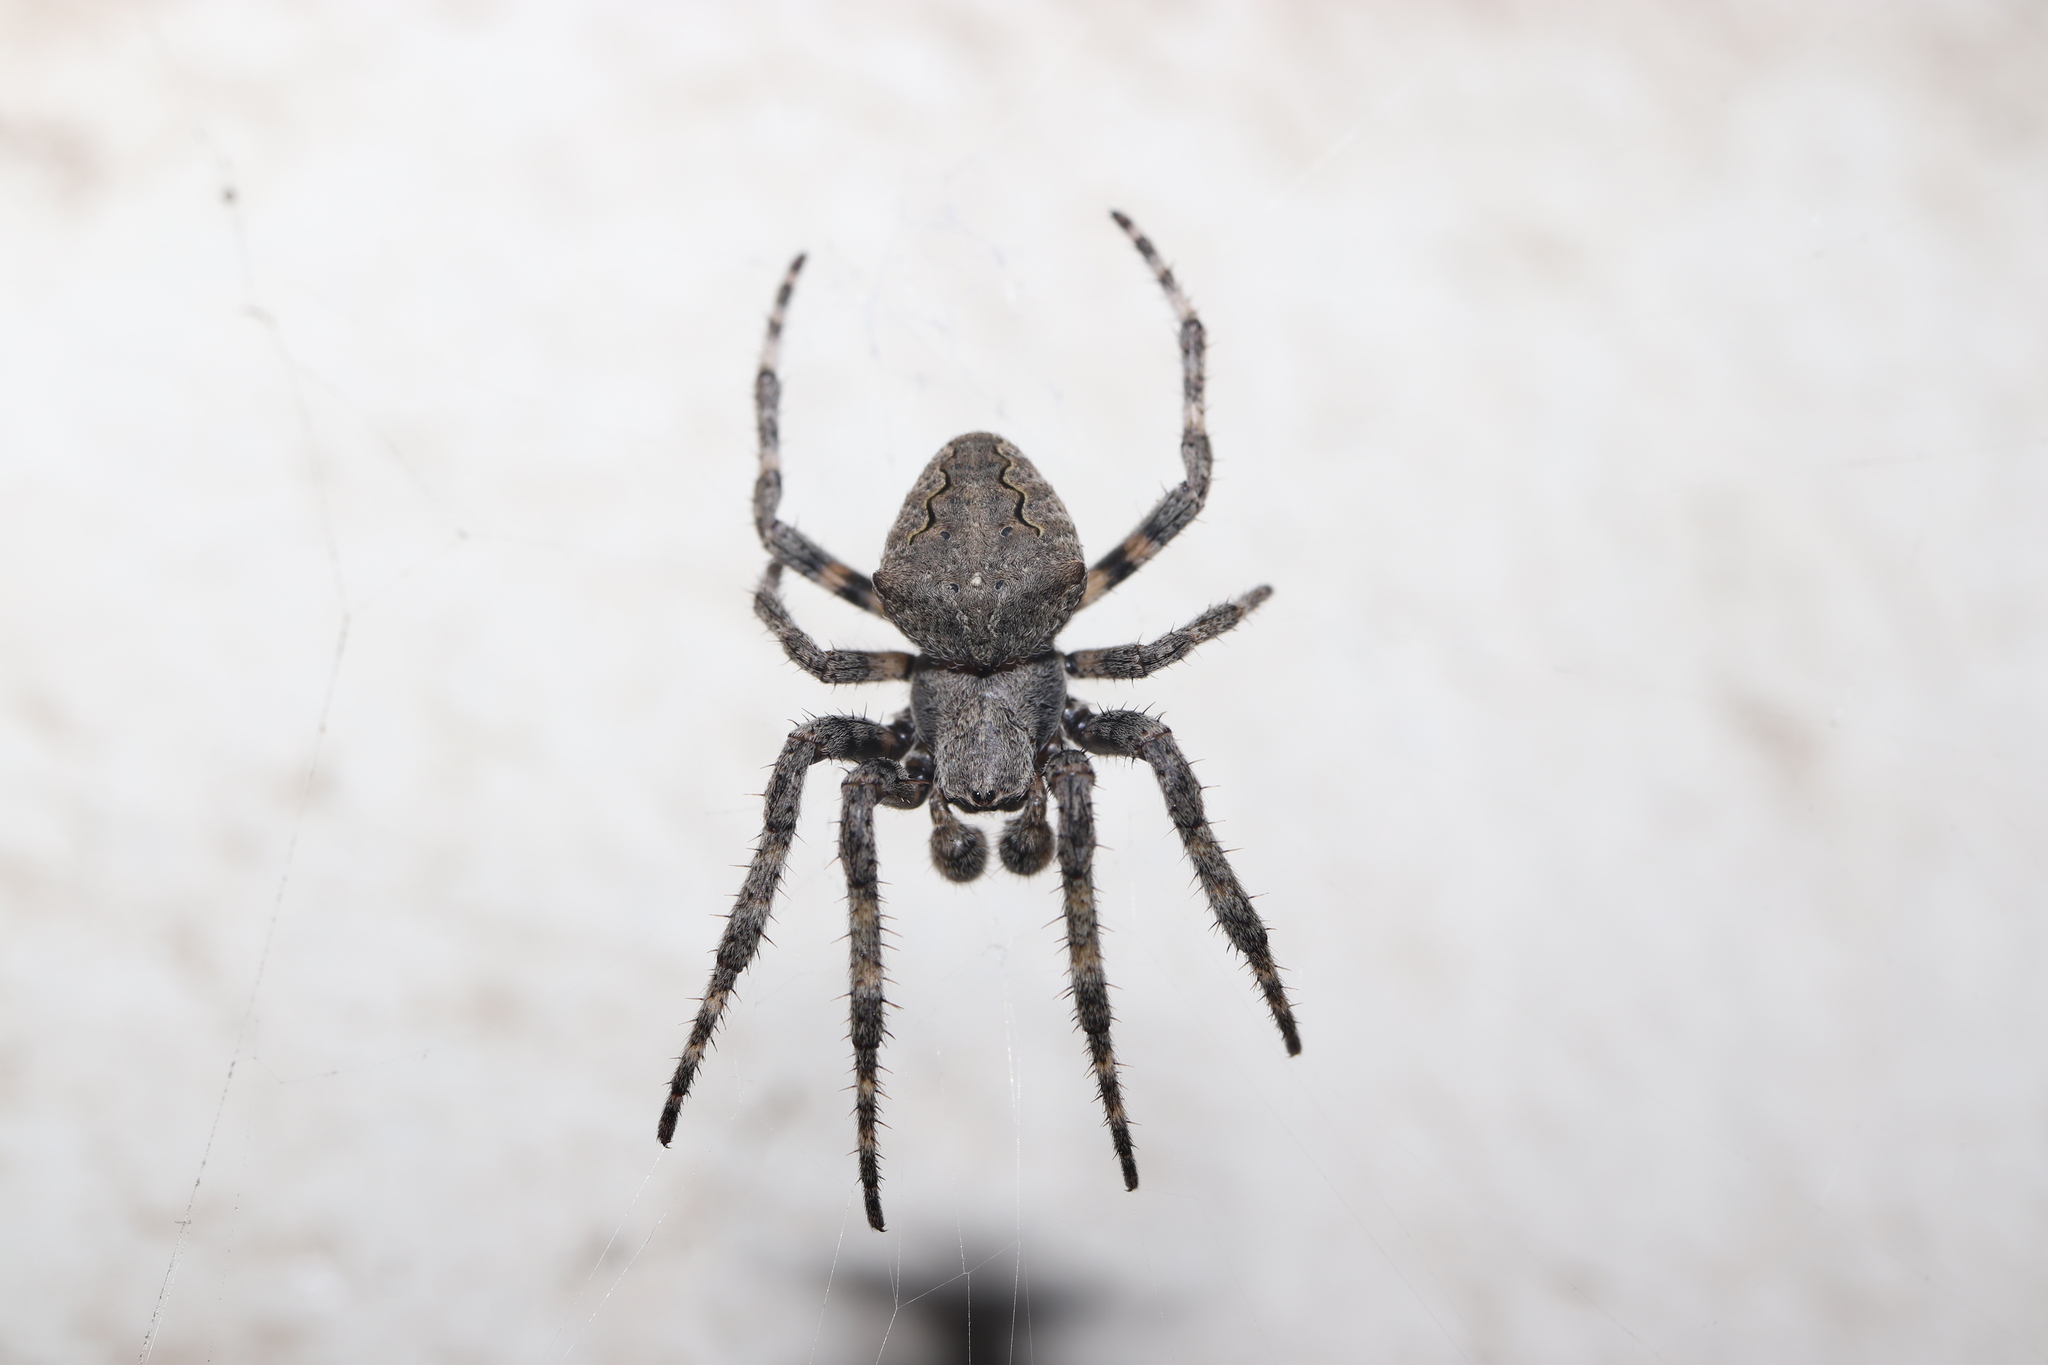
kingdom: Animalia
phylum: Arthropoda
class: Arachnida
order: Araneae
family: Araneidae
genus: Araneus
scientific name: Araneus ventricosus
